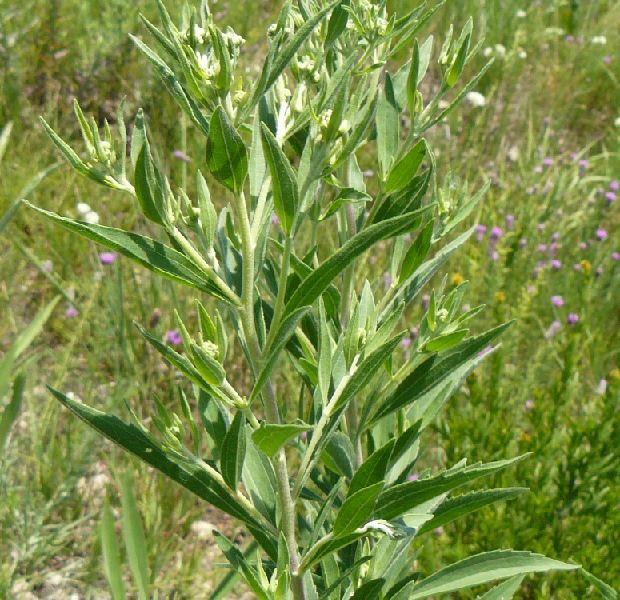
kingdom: Plantae
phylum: Tracheophyta
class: Magnoliopsida
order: Asterales
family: Asteraceae
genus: Eupatorium
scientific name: Eupatorium altissimum
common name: Tall thoroughwort
